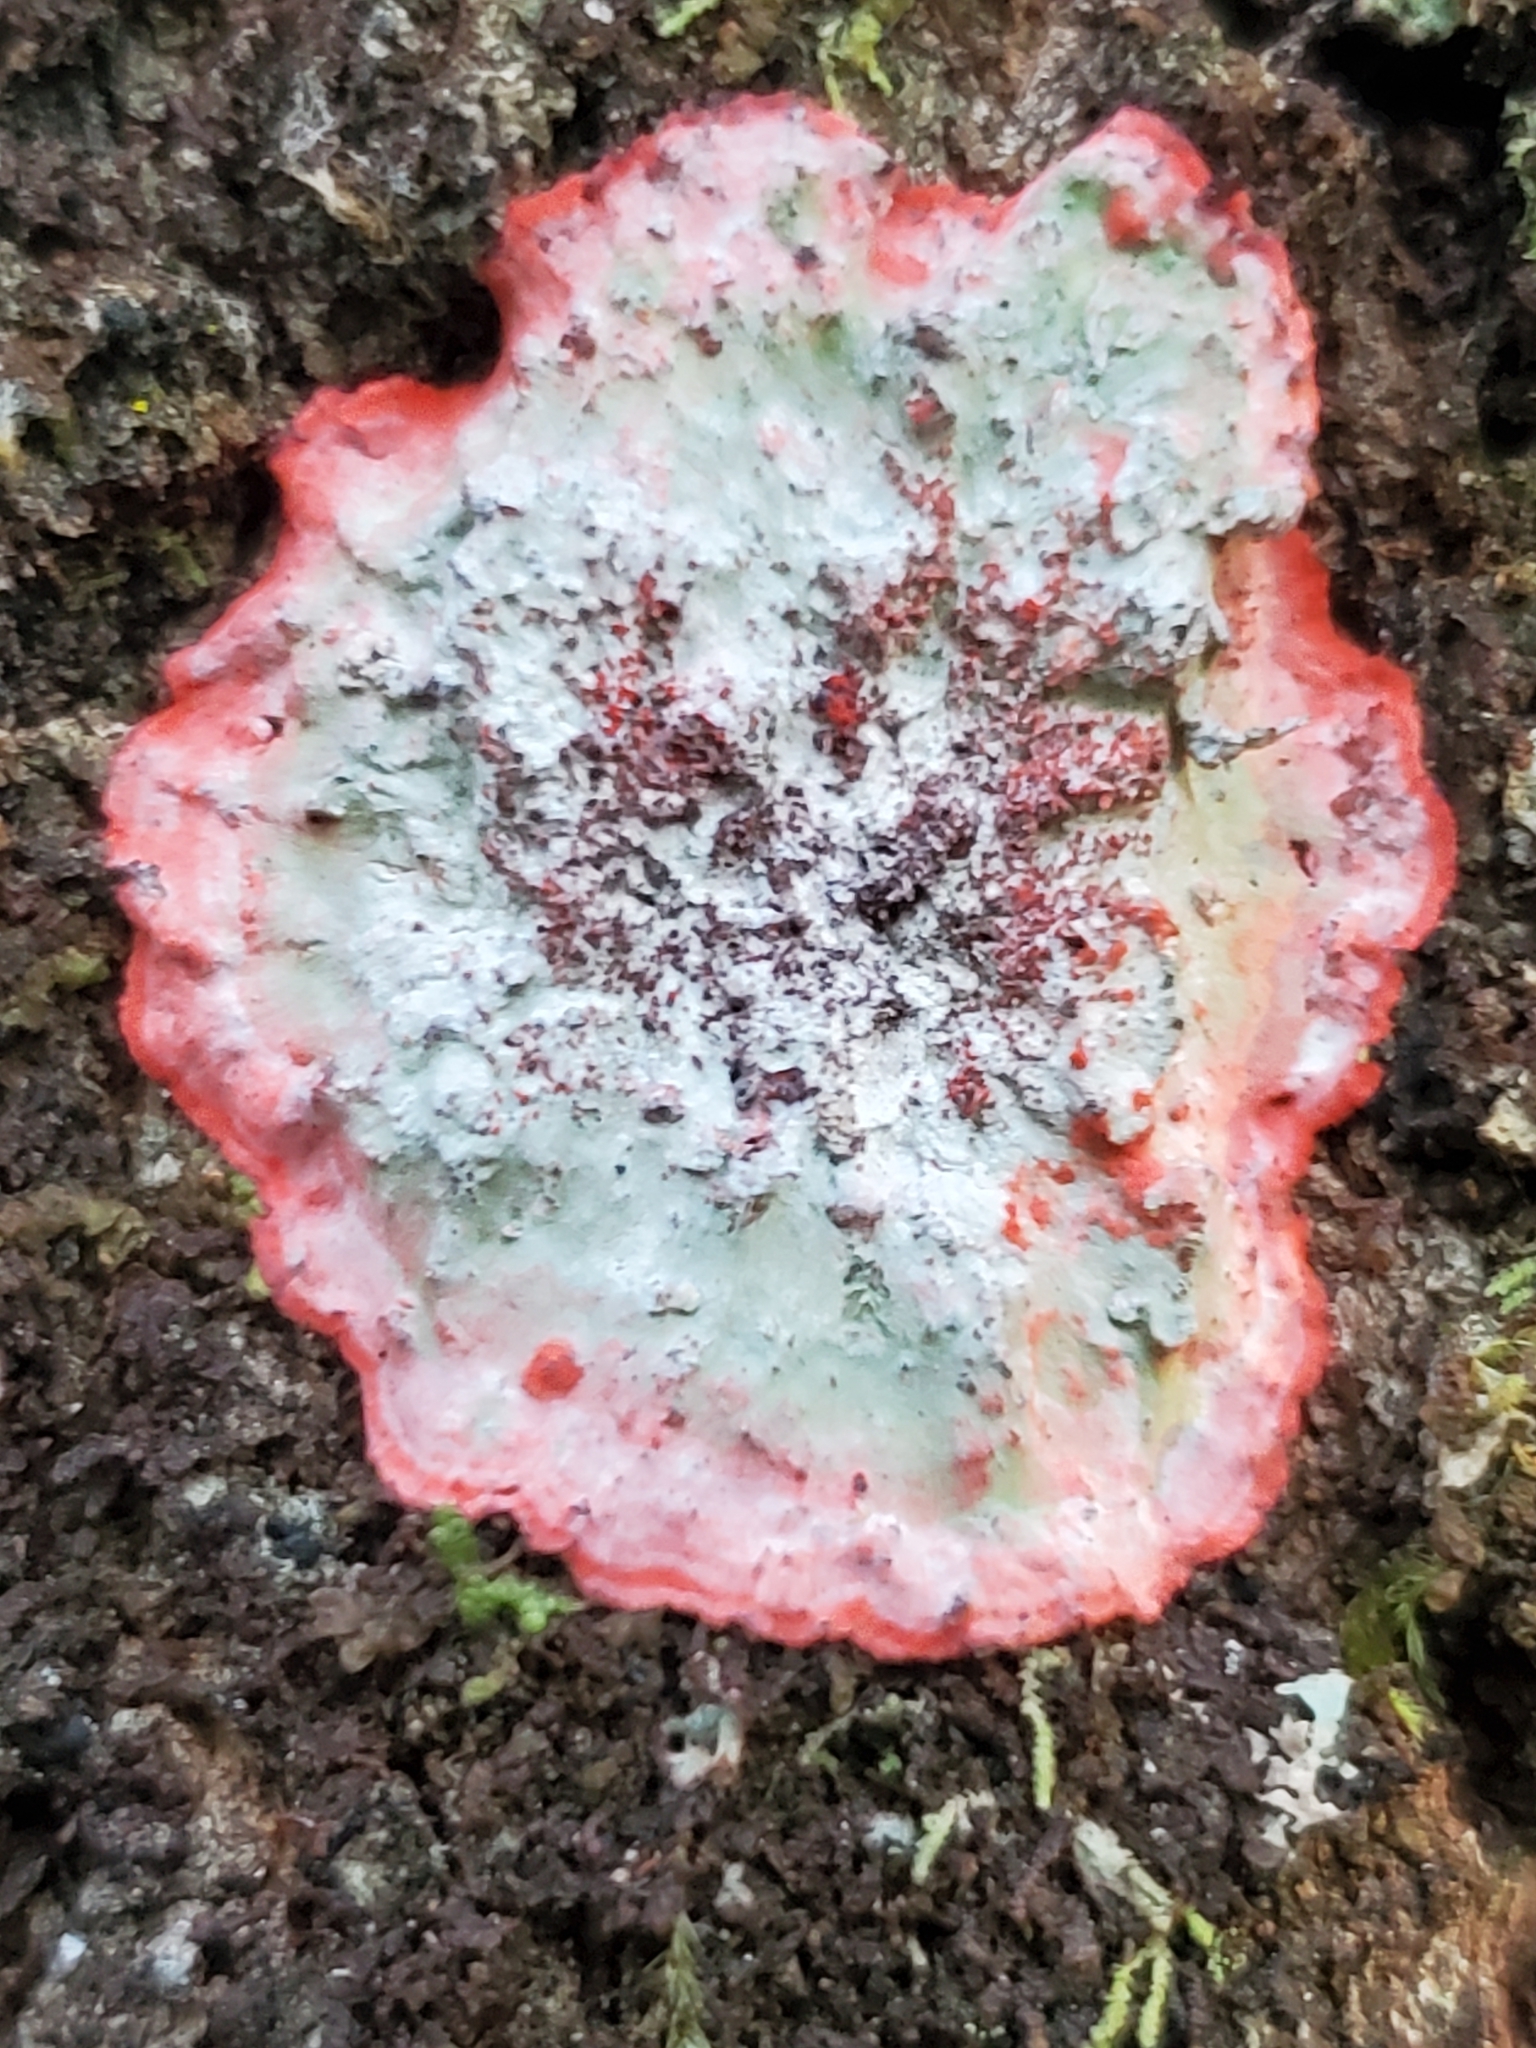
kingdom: Fungi
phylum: Ascomycota
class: Arthoniomycetes
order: Arthoniales
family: Arthoniaceae
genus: Herpothallon
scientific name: Herpothallon rubrocinctum
